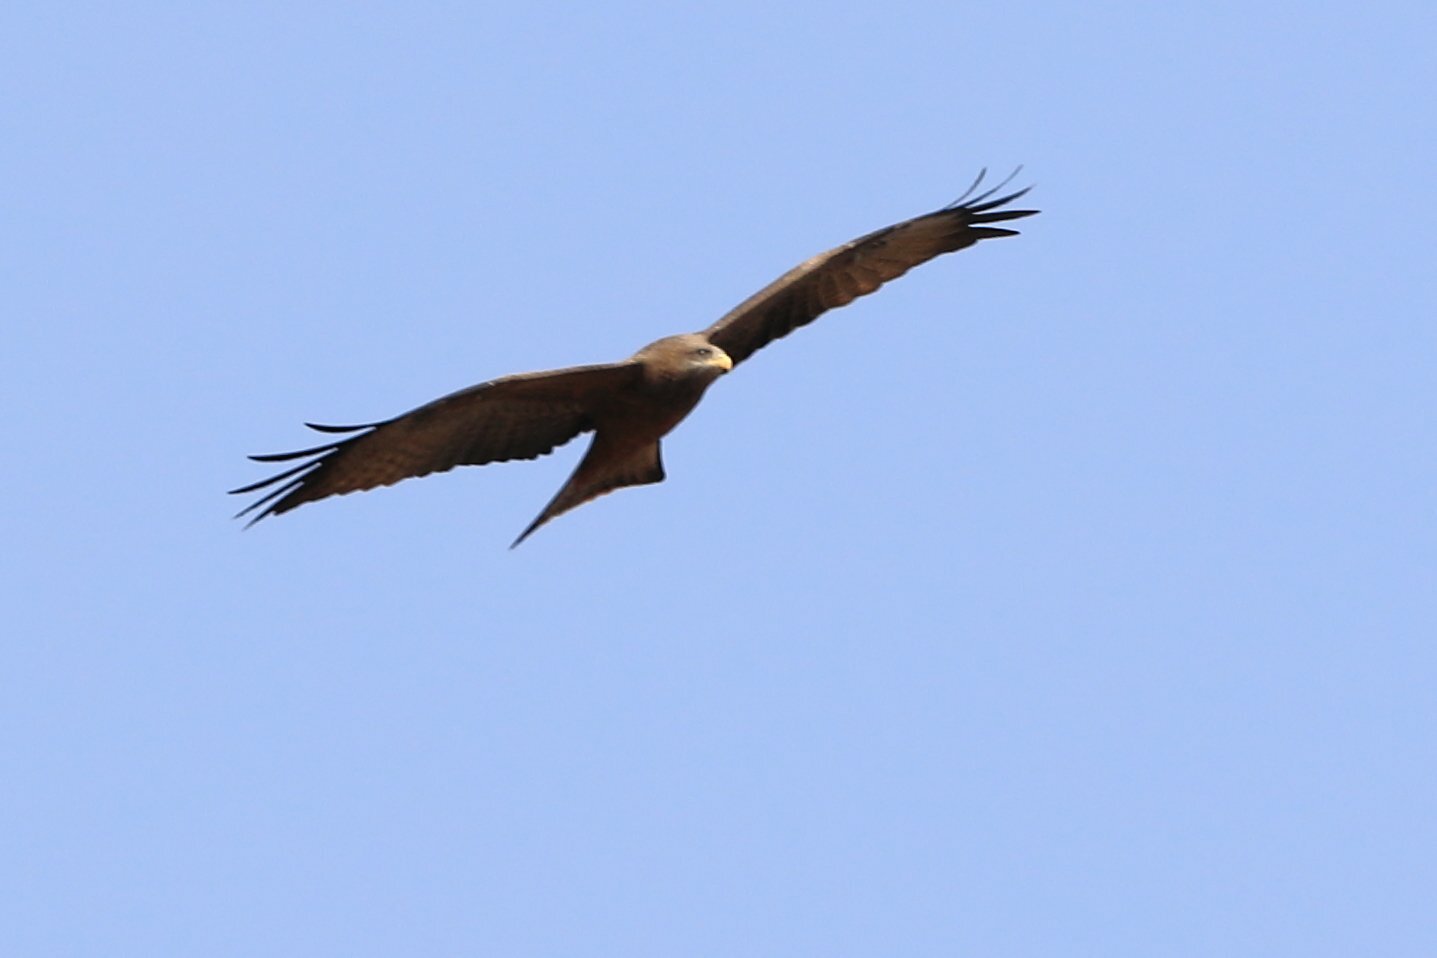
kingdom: Animalia
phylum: Chordata
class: Aves
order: Accipitriformes
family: Accipitridae
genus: Milvus
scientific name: Milvus migrans
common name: Black kite
